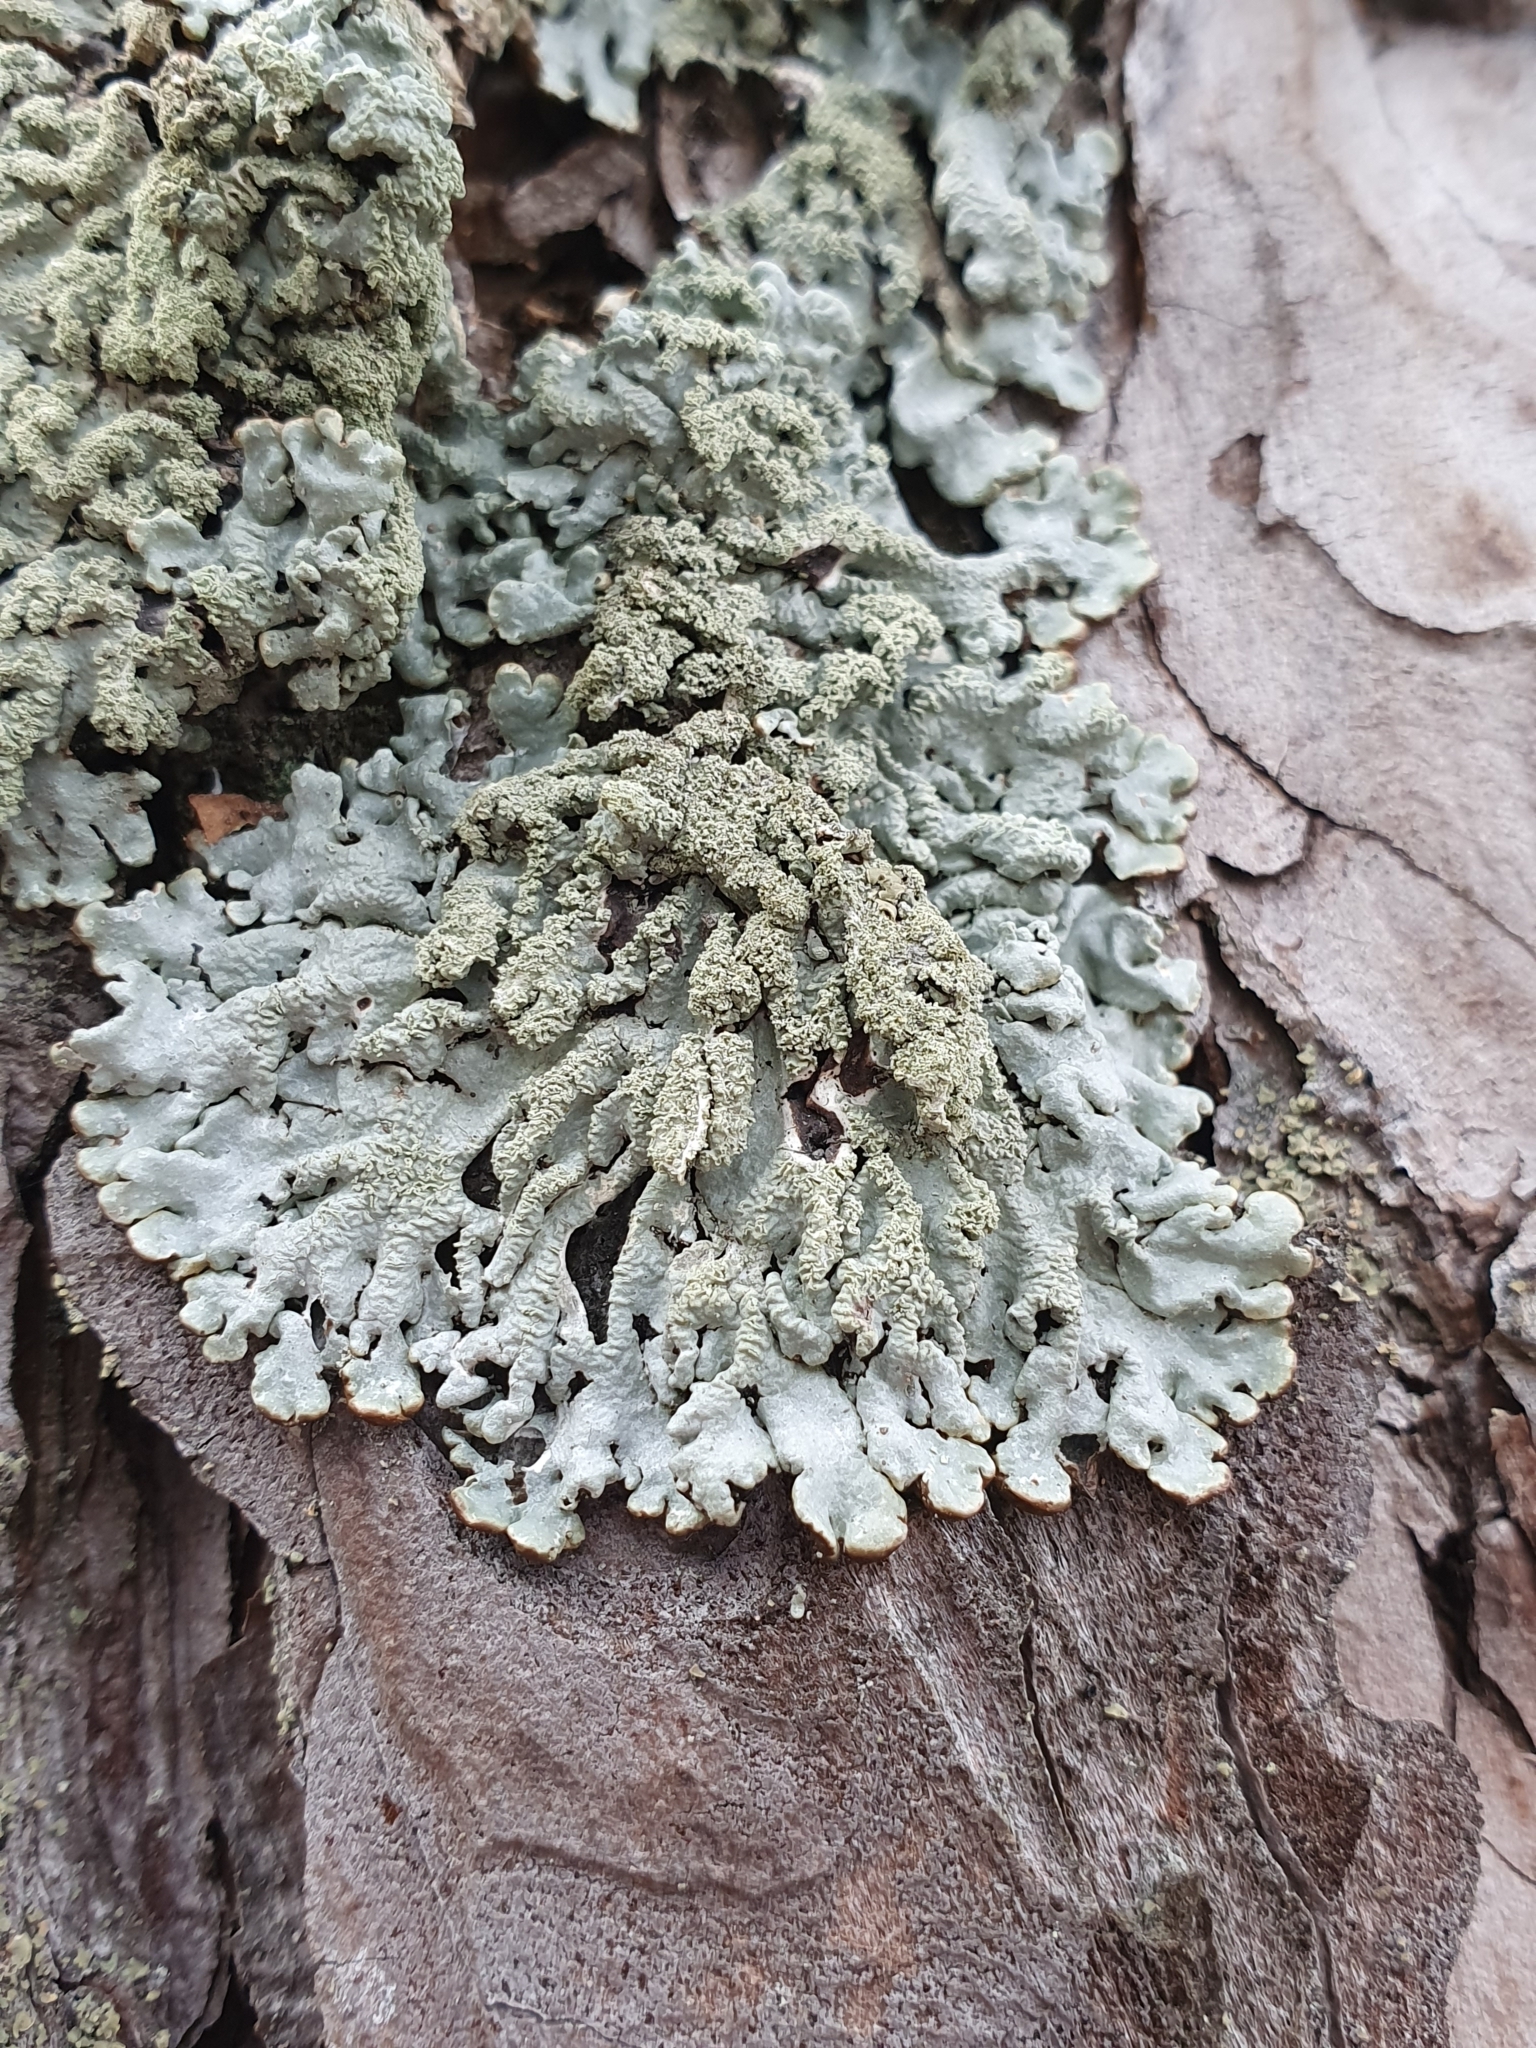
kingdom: Fungi
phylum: Ascomycota
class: Lecanoromycetes
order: Lecanorales
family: Parmeliaceae
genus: Hypogymnia
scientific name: Hypogymnia farinacea
